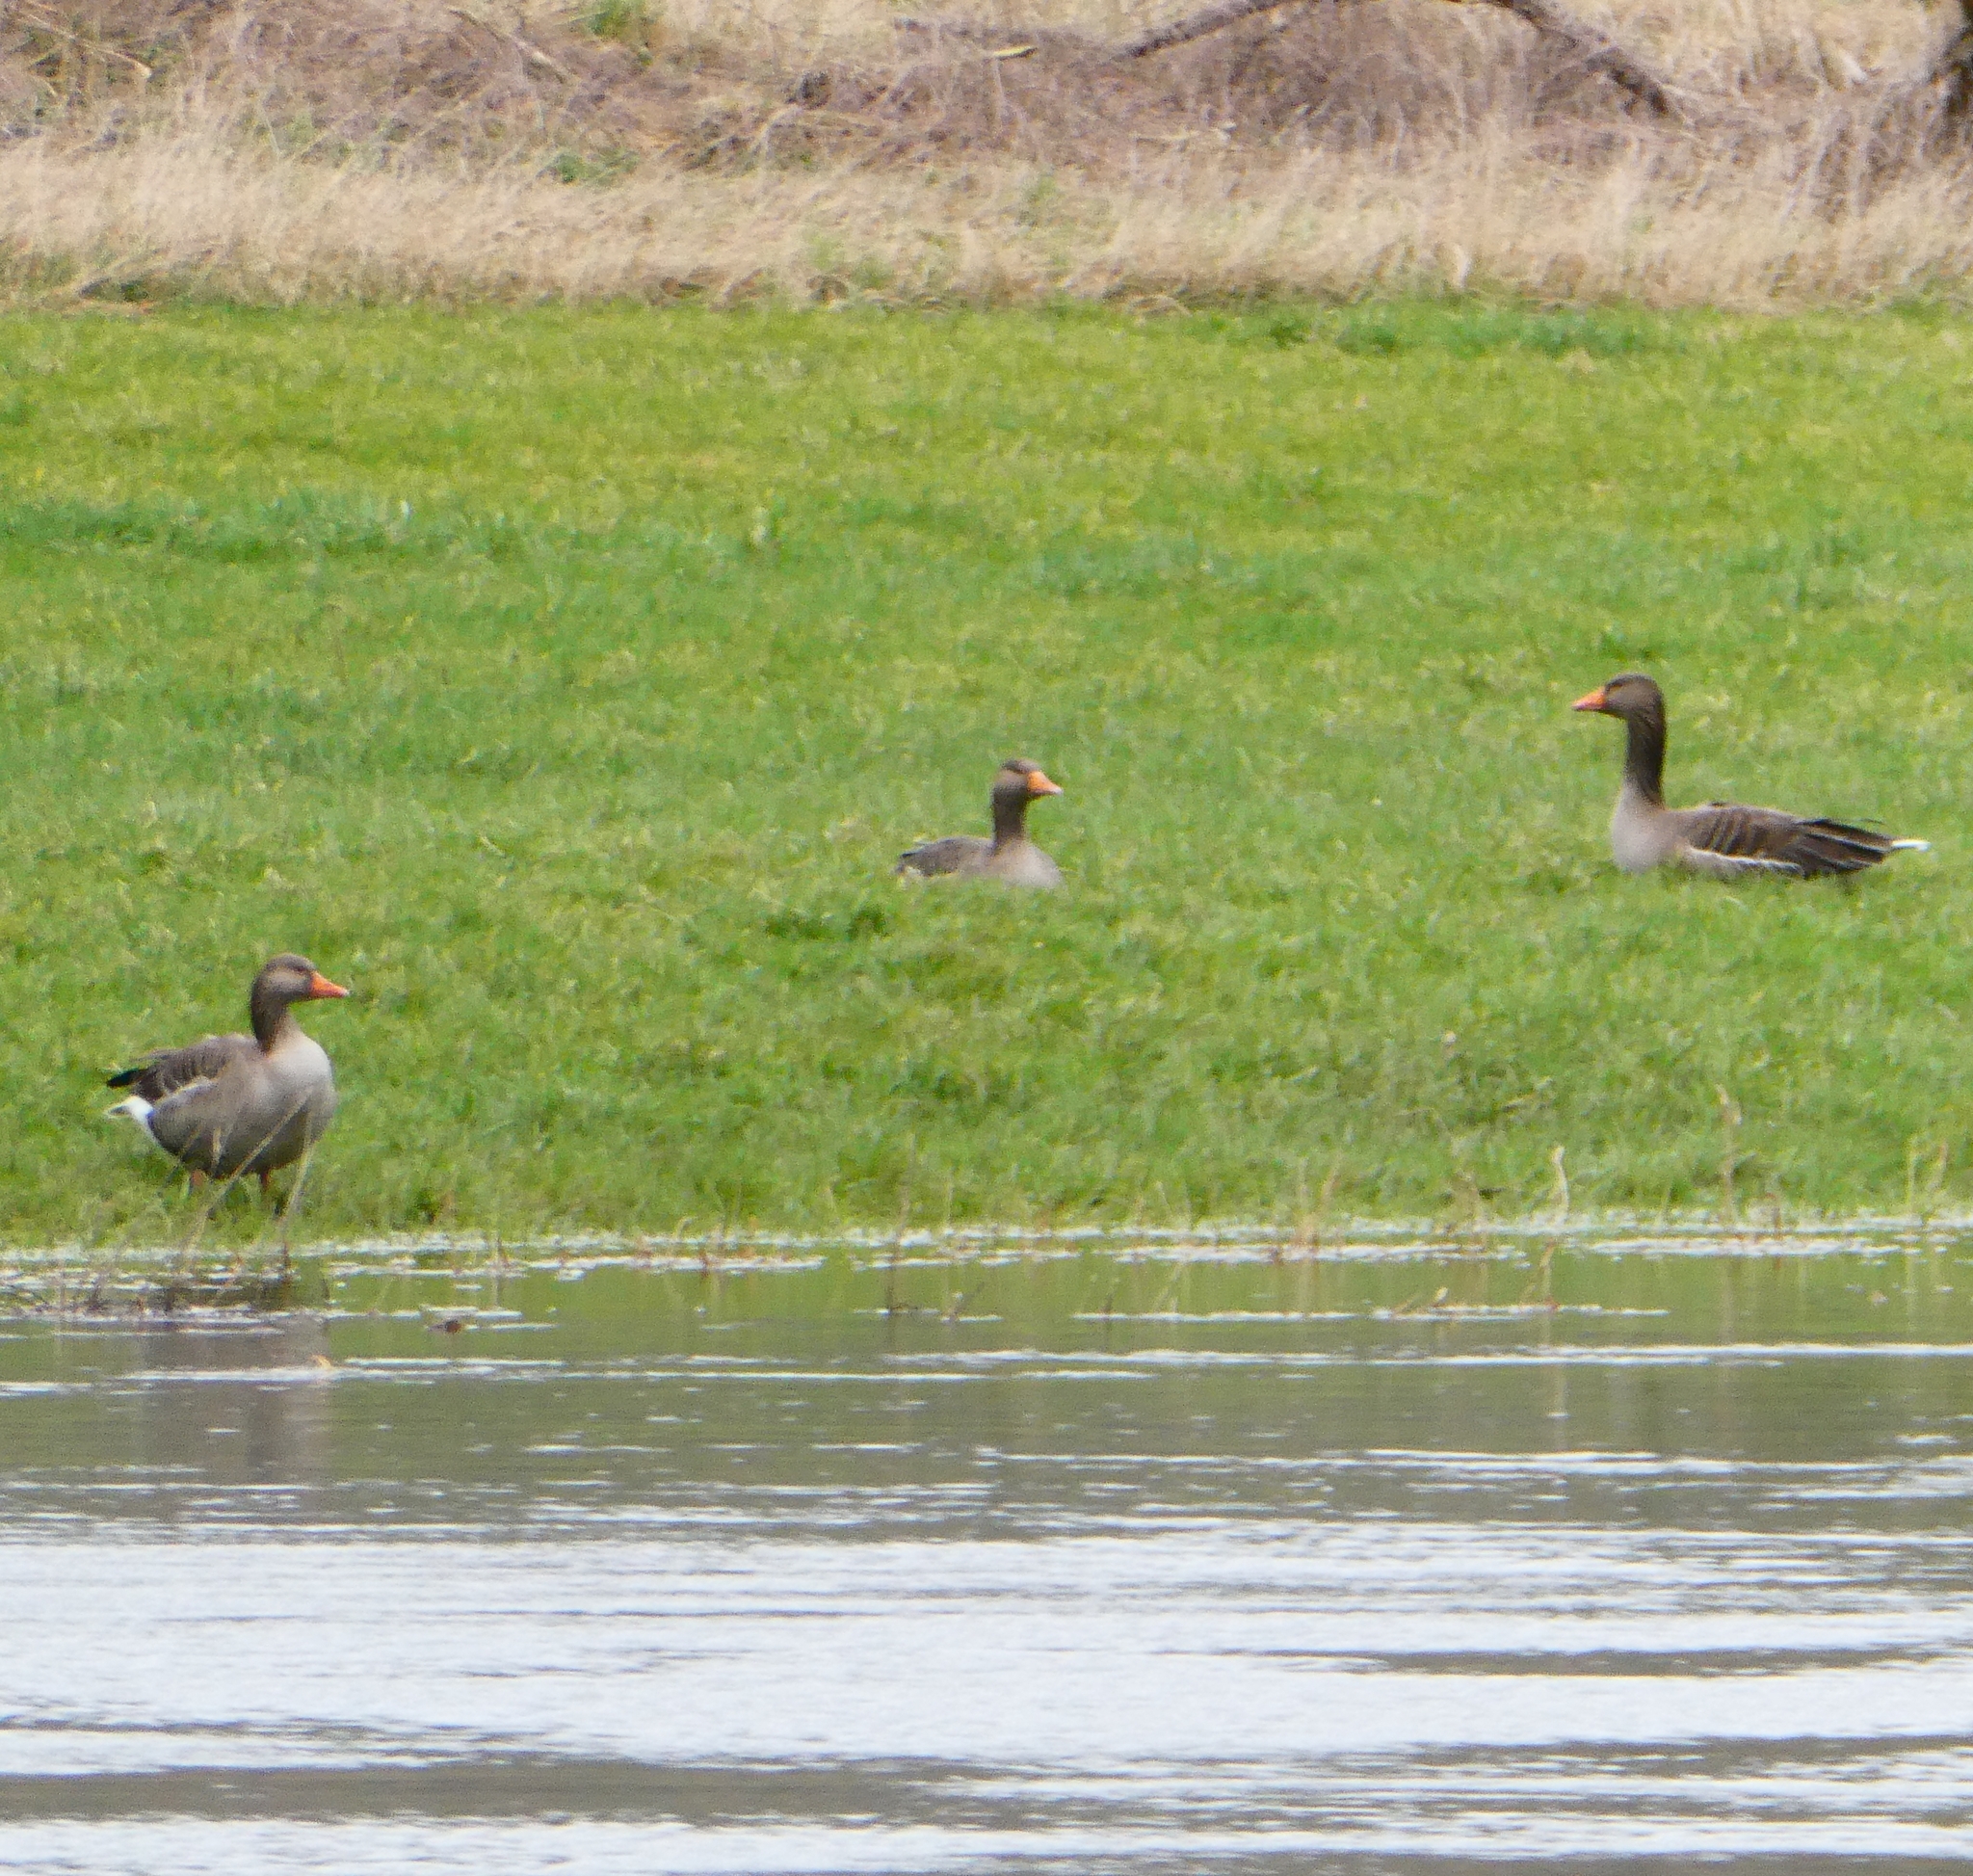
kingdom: Animalia
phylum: Chordata
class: Aves
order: Anseriformes
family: Anatidae
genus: Anser
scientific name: Anser anser
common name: Greylag goose
